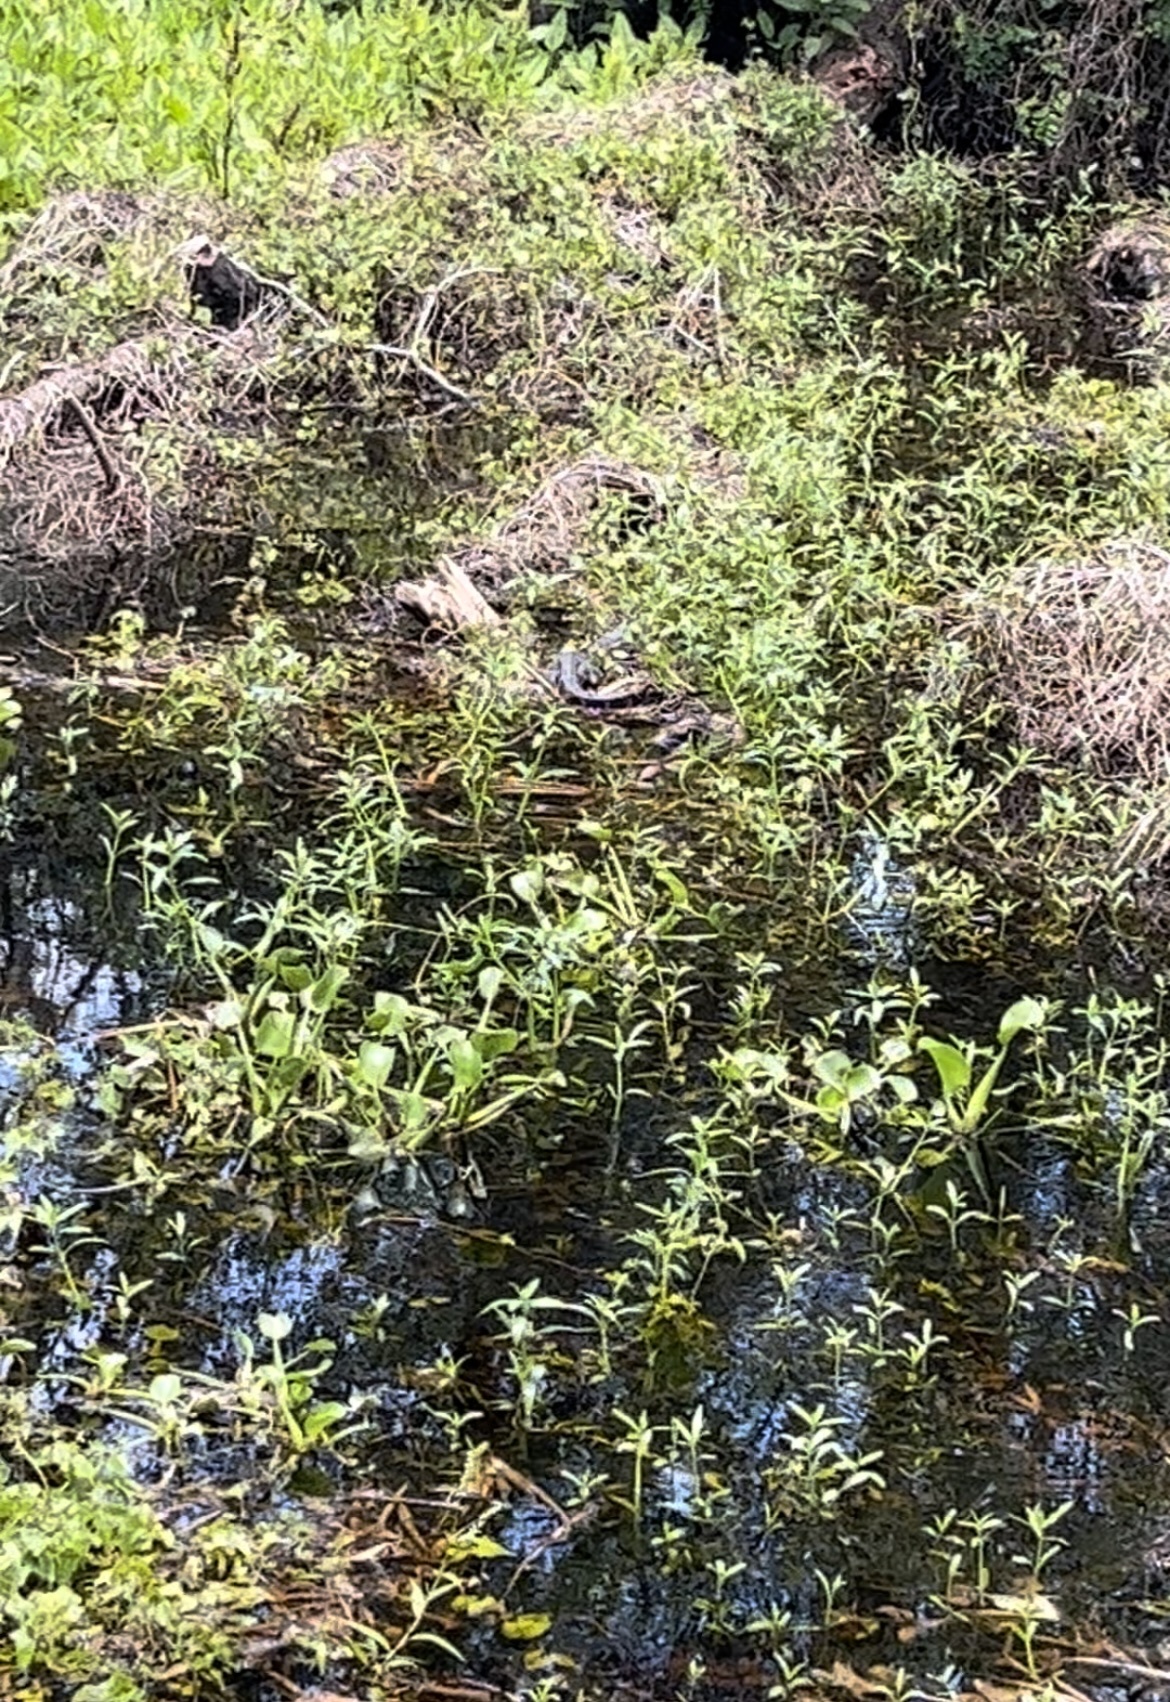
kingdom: Animalia
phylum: Chordata
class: Crocodylia
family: Alligatoridae
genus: Alligator
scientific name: Alligator mississippiensis
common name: American alligator
